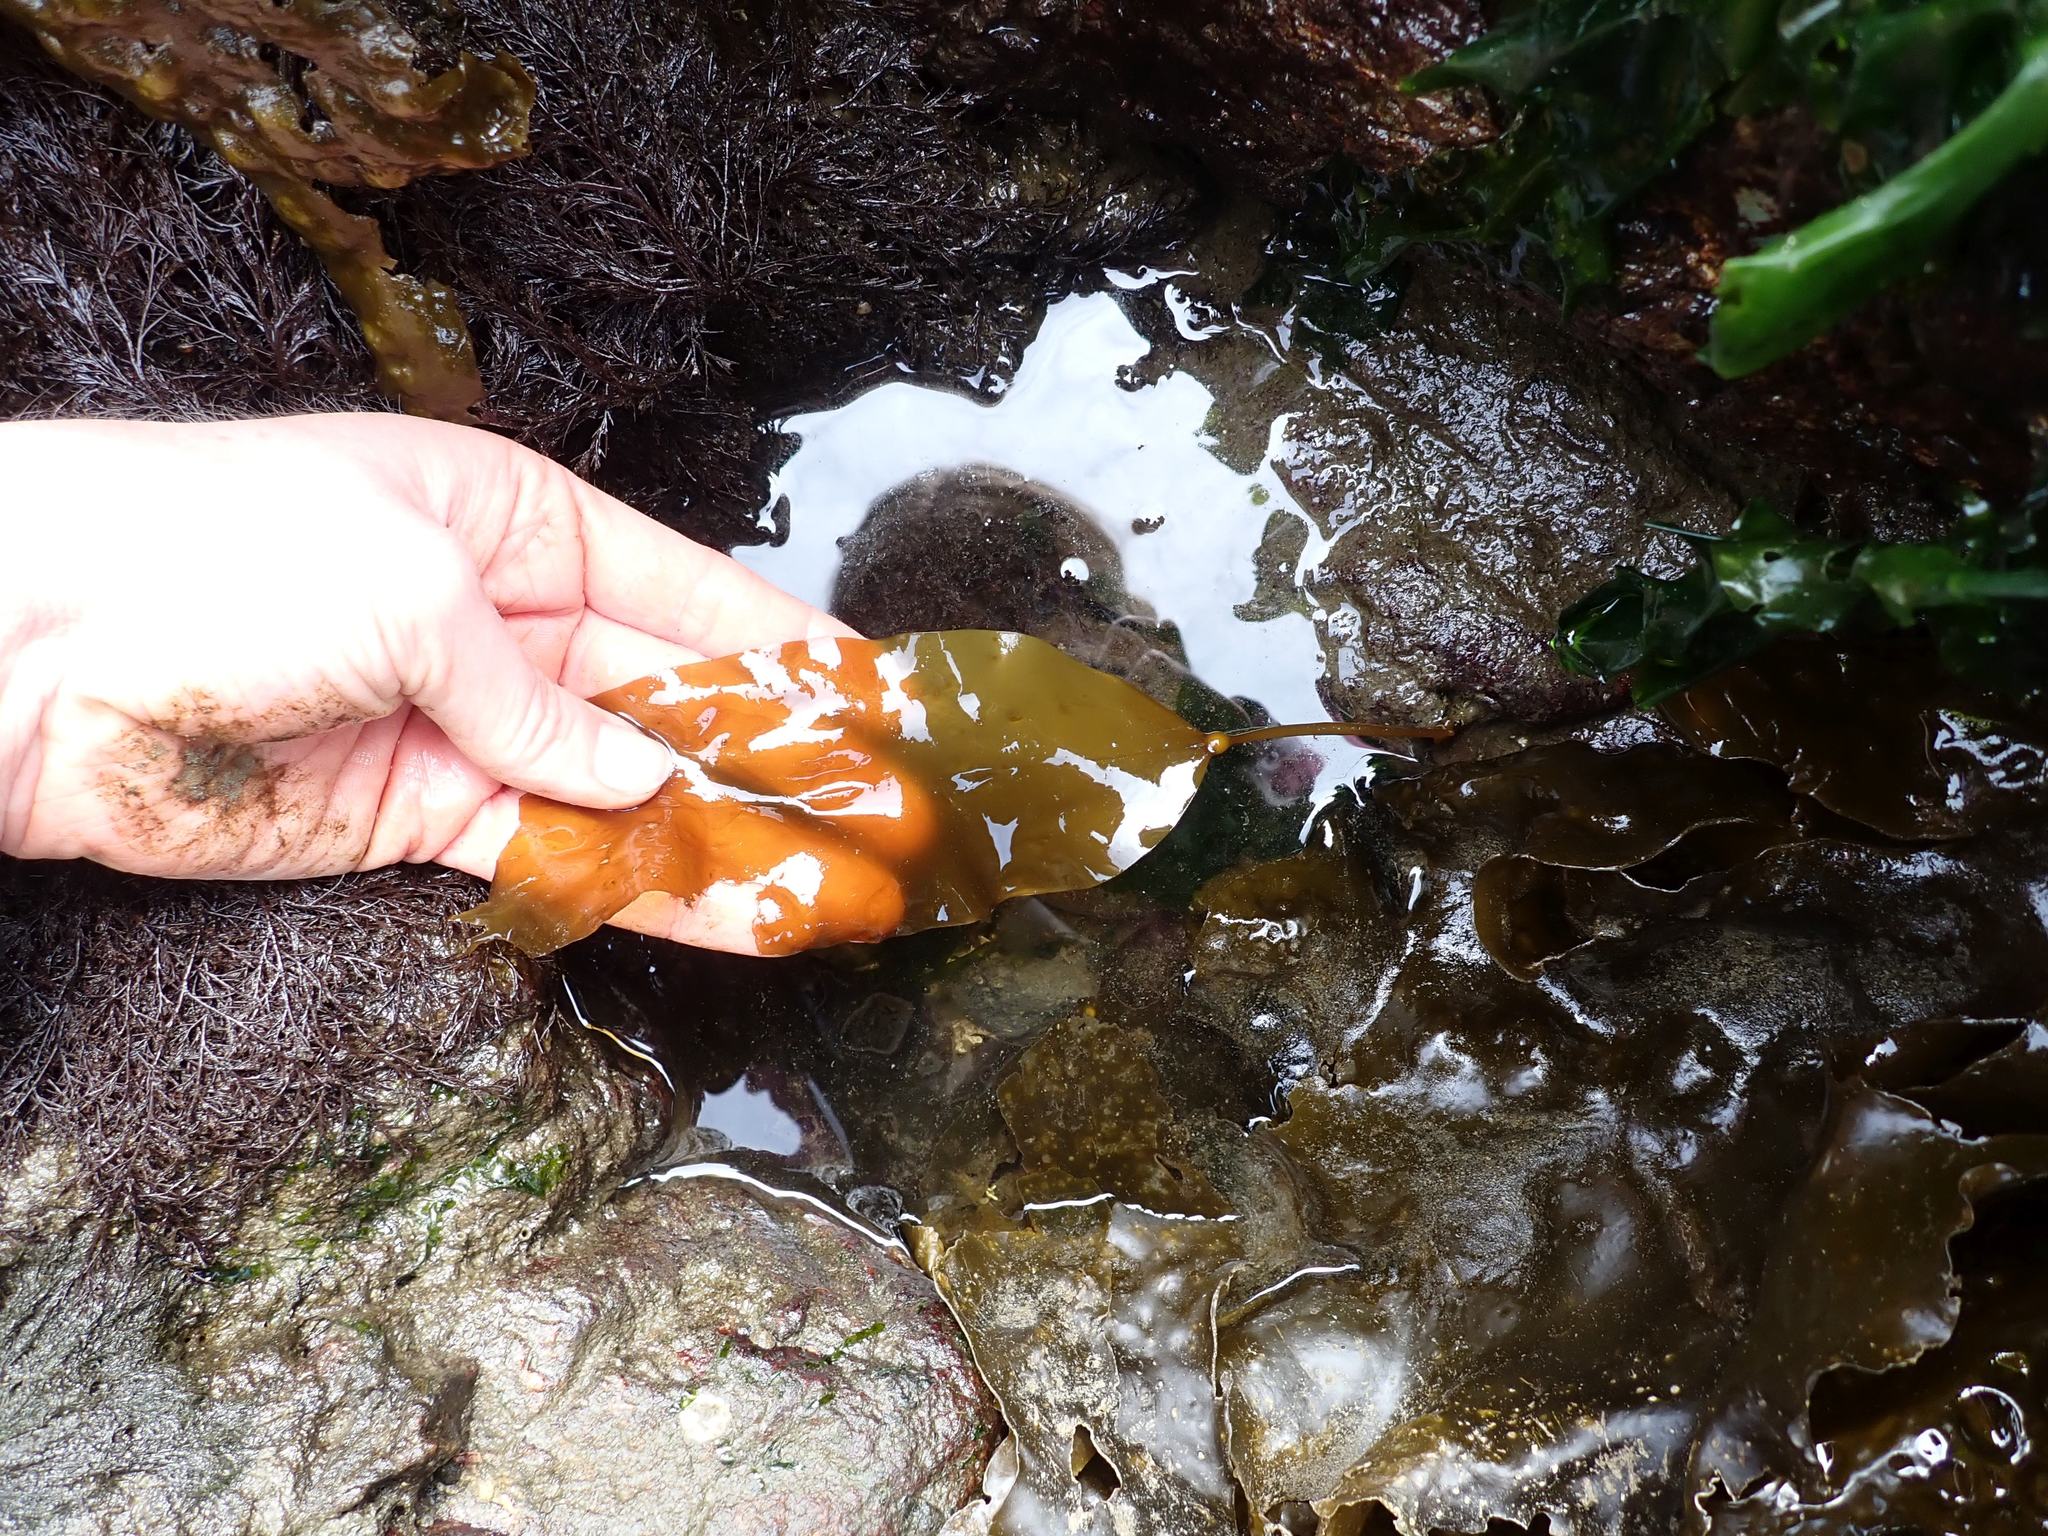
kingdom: Chromista
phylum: Ochrophyta
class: Phaeophyceae
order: Laminariales
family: Laminariaceae
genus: Nereocystis
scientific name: Nereocystis luetkeana
